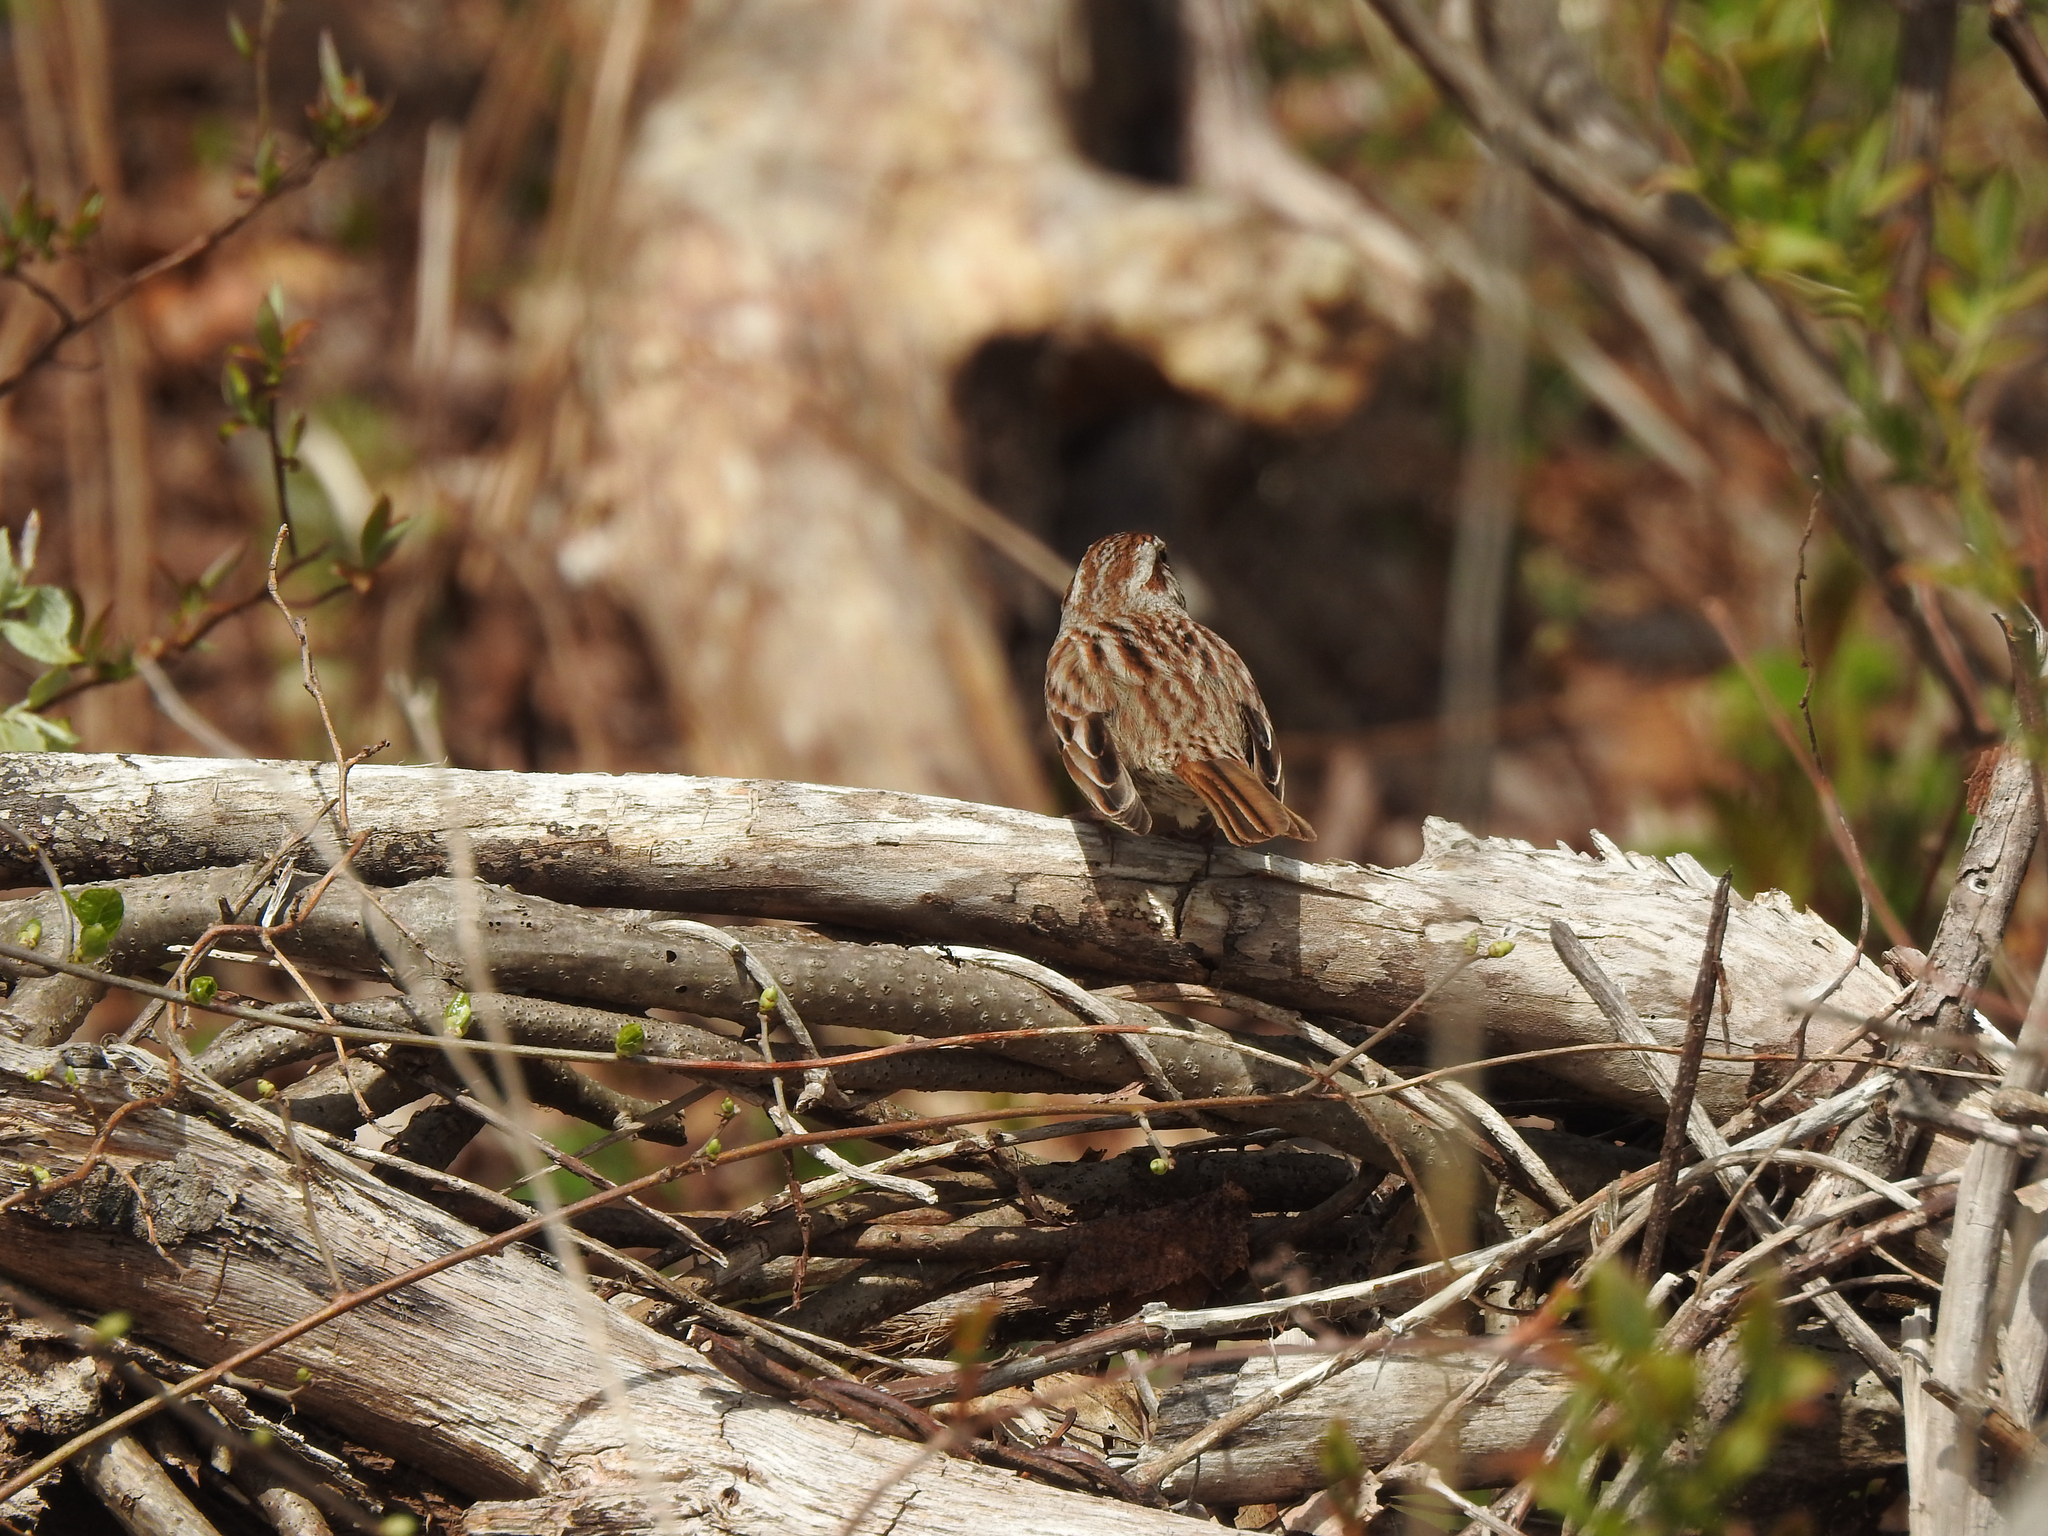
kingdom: Animalia
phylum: Chordata
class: Aves
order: Passeriformes
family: Passerellidae
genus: Melospiza
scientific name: Melospiza melodia
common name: Song sparrow
